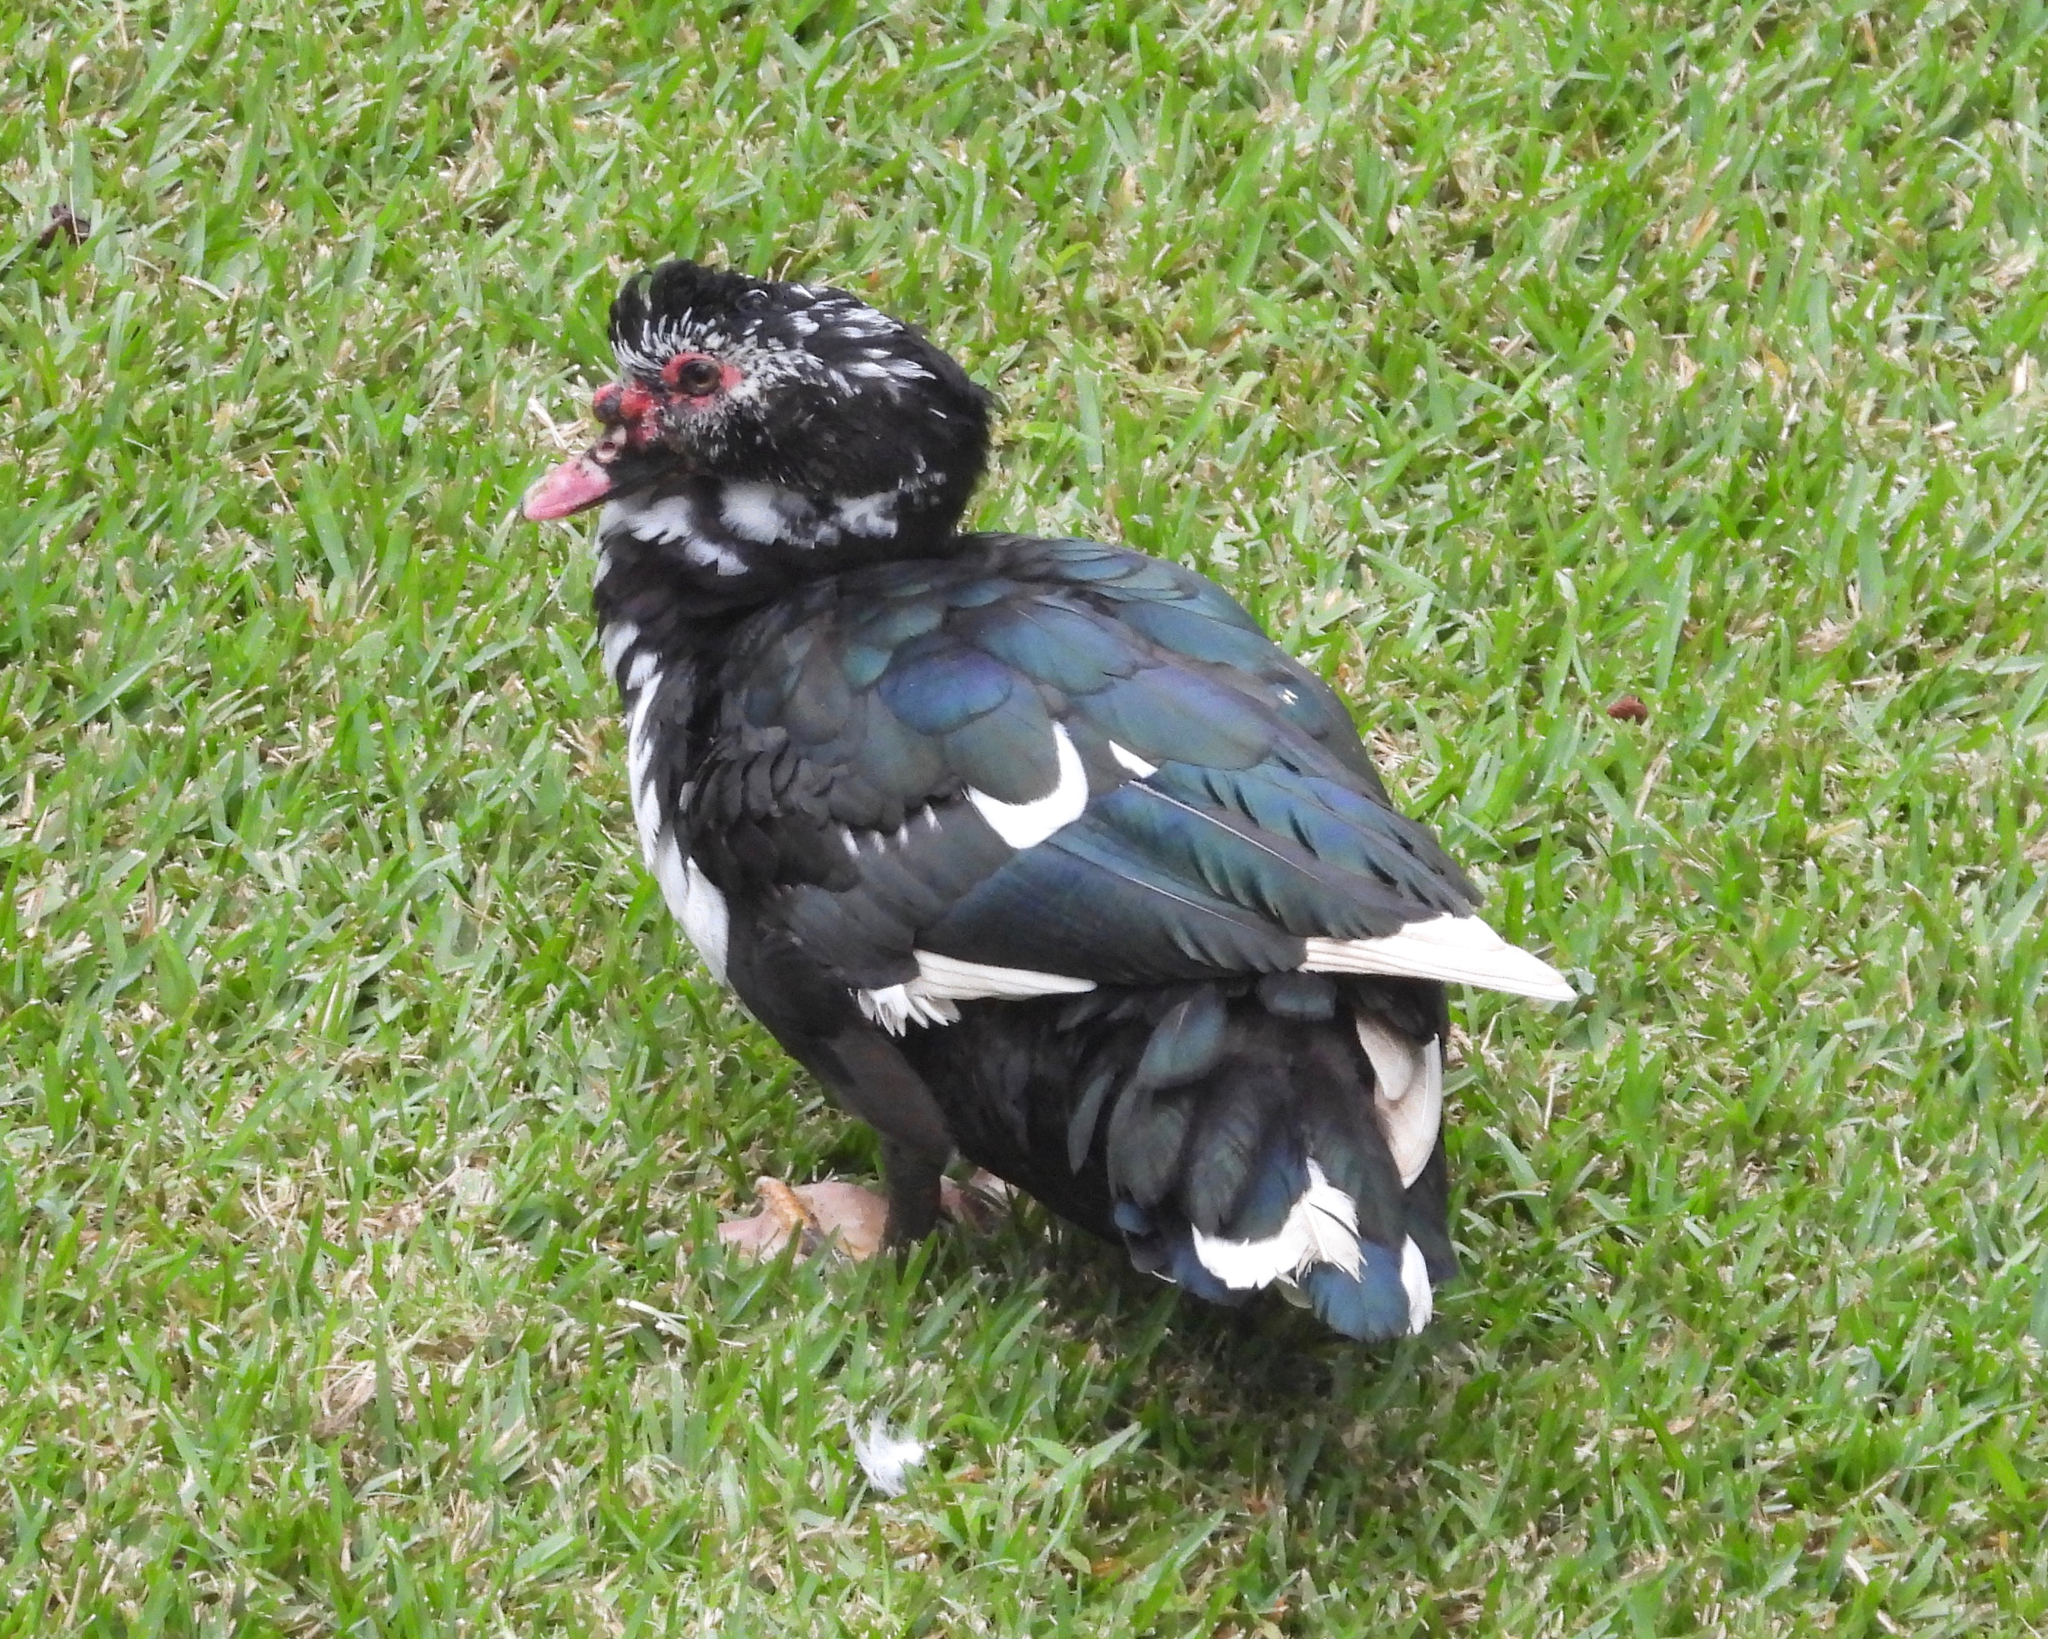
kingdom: Animalia
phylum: Chordata
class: Aves
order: Anseriformes
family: Anatidae
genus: Cairina
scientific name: Cairina moschata
